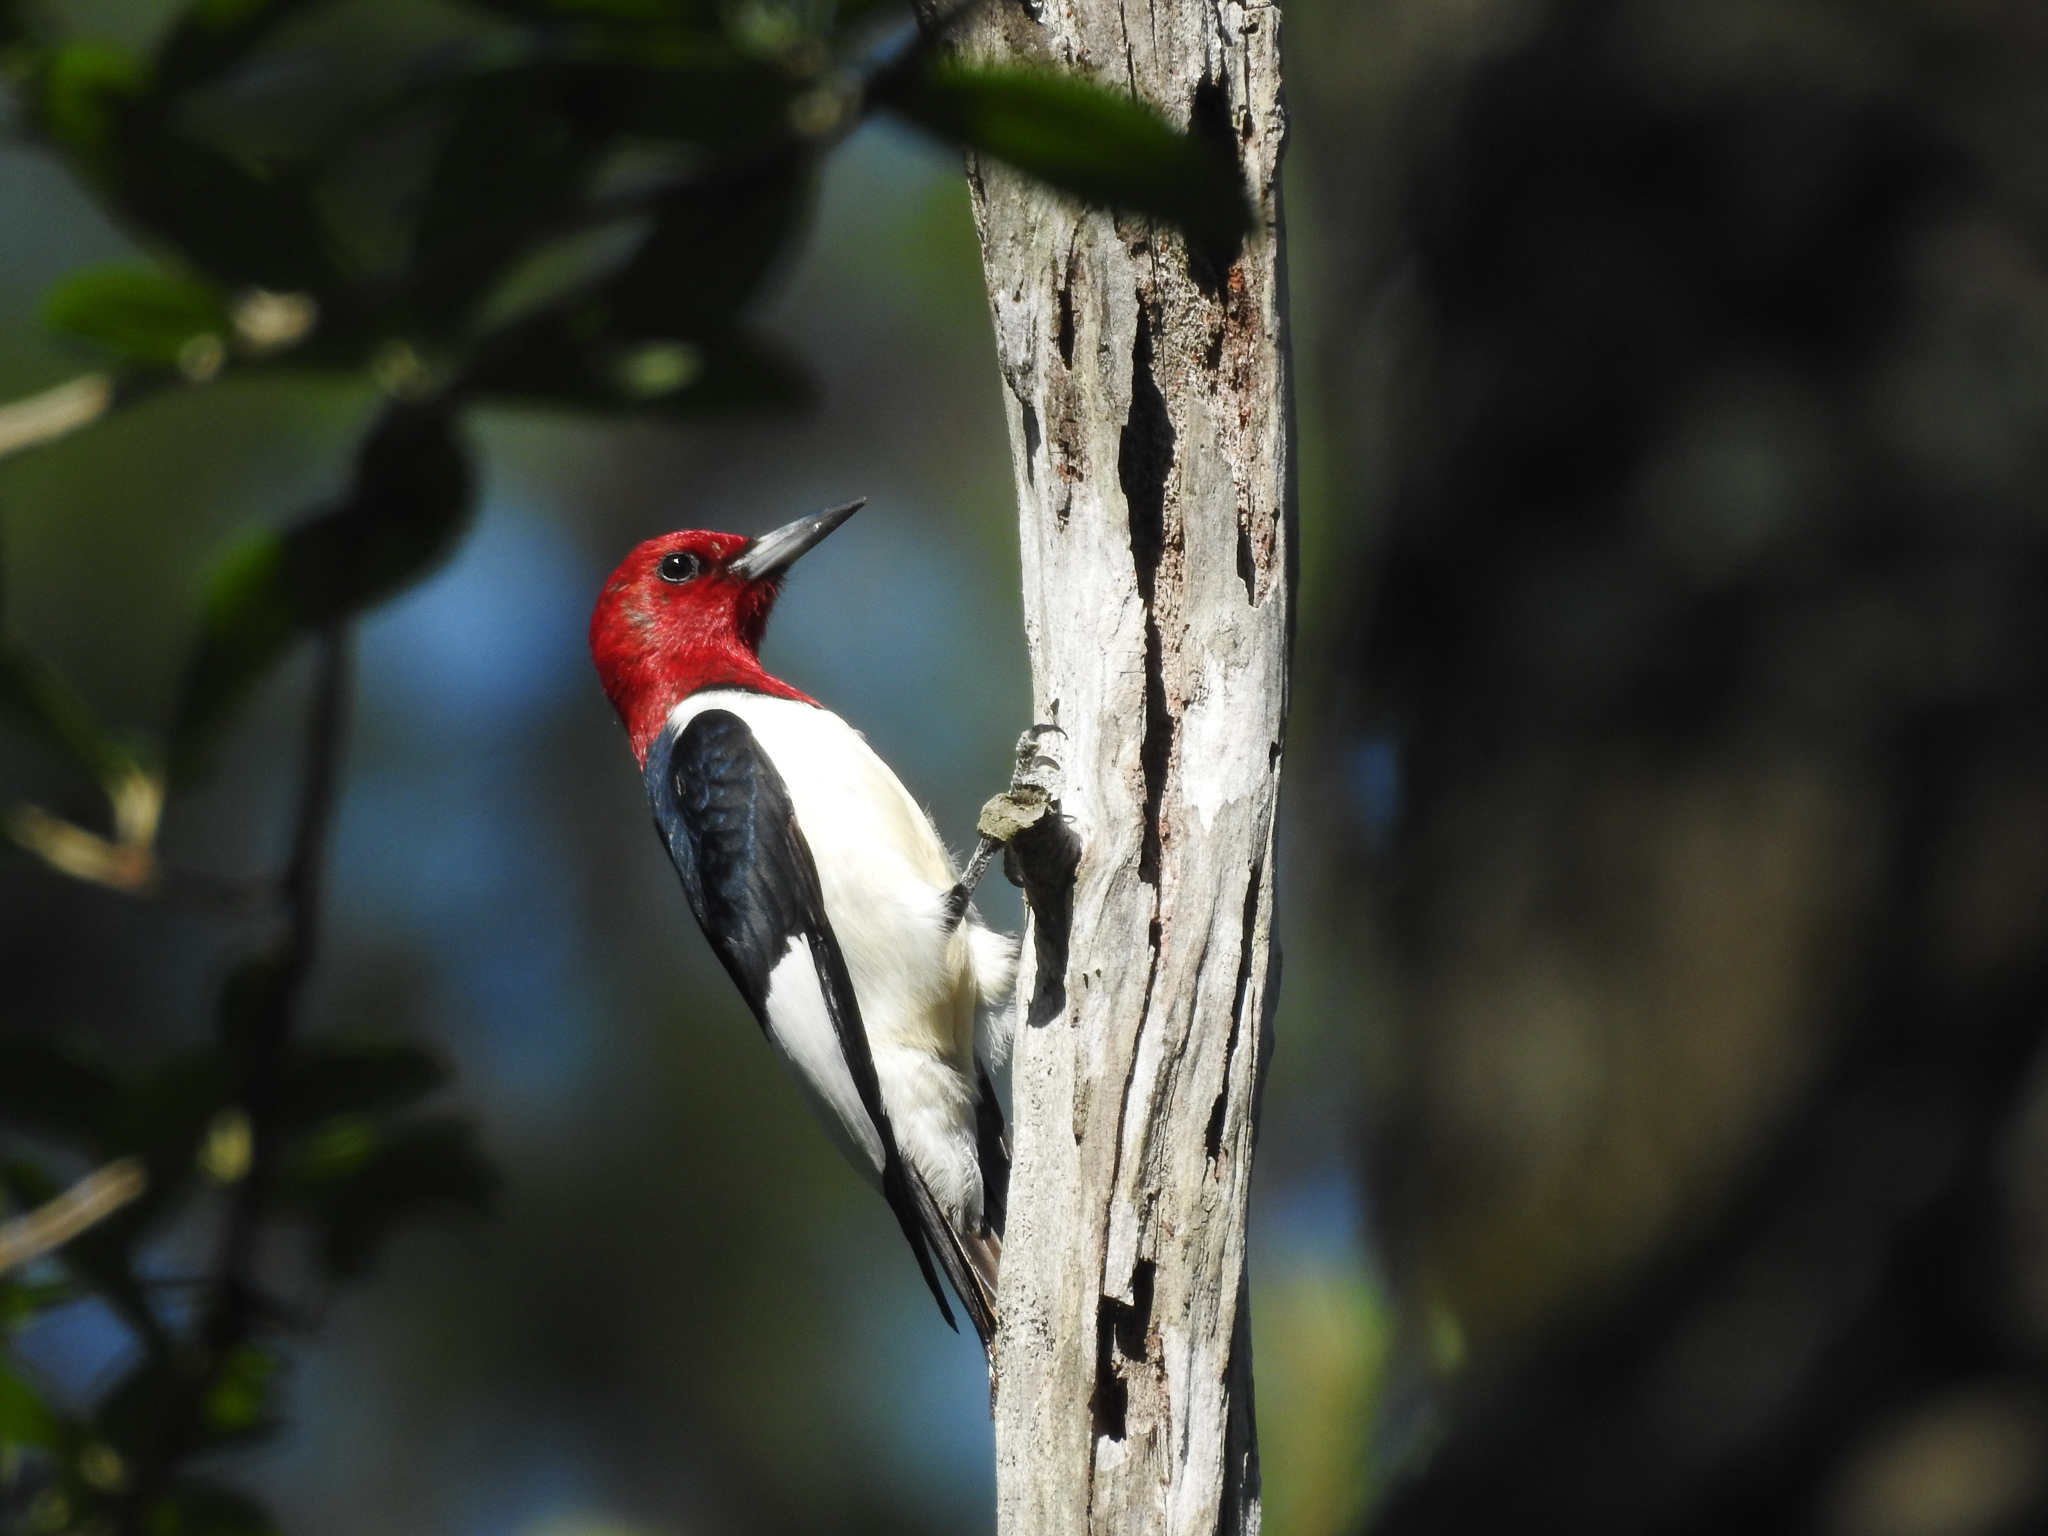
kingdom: Animalia
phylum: Chordata
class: Aves
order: Piciformes
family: Picidae
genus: Melanerpes
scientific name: Melanerpes erythrocephalus
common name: Red-headed woodpecker
